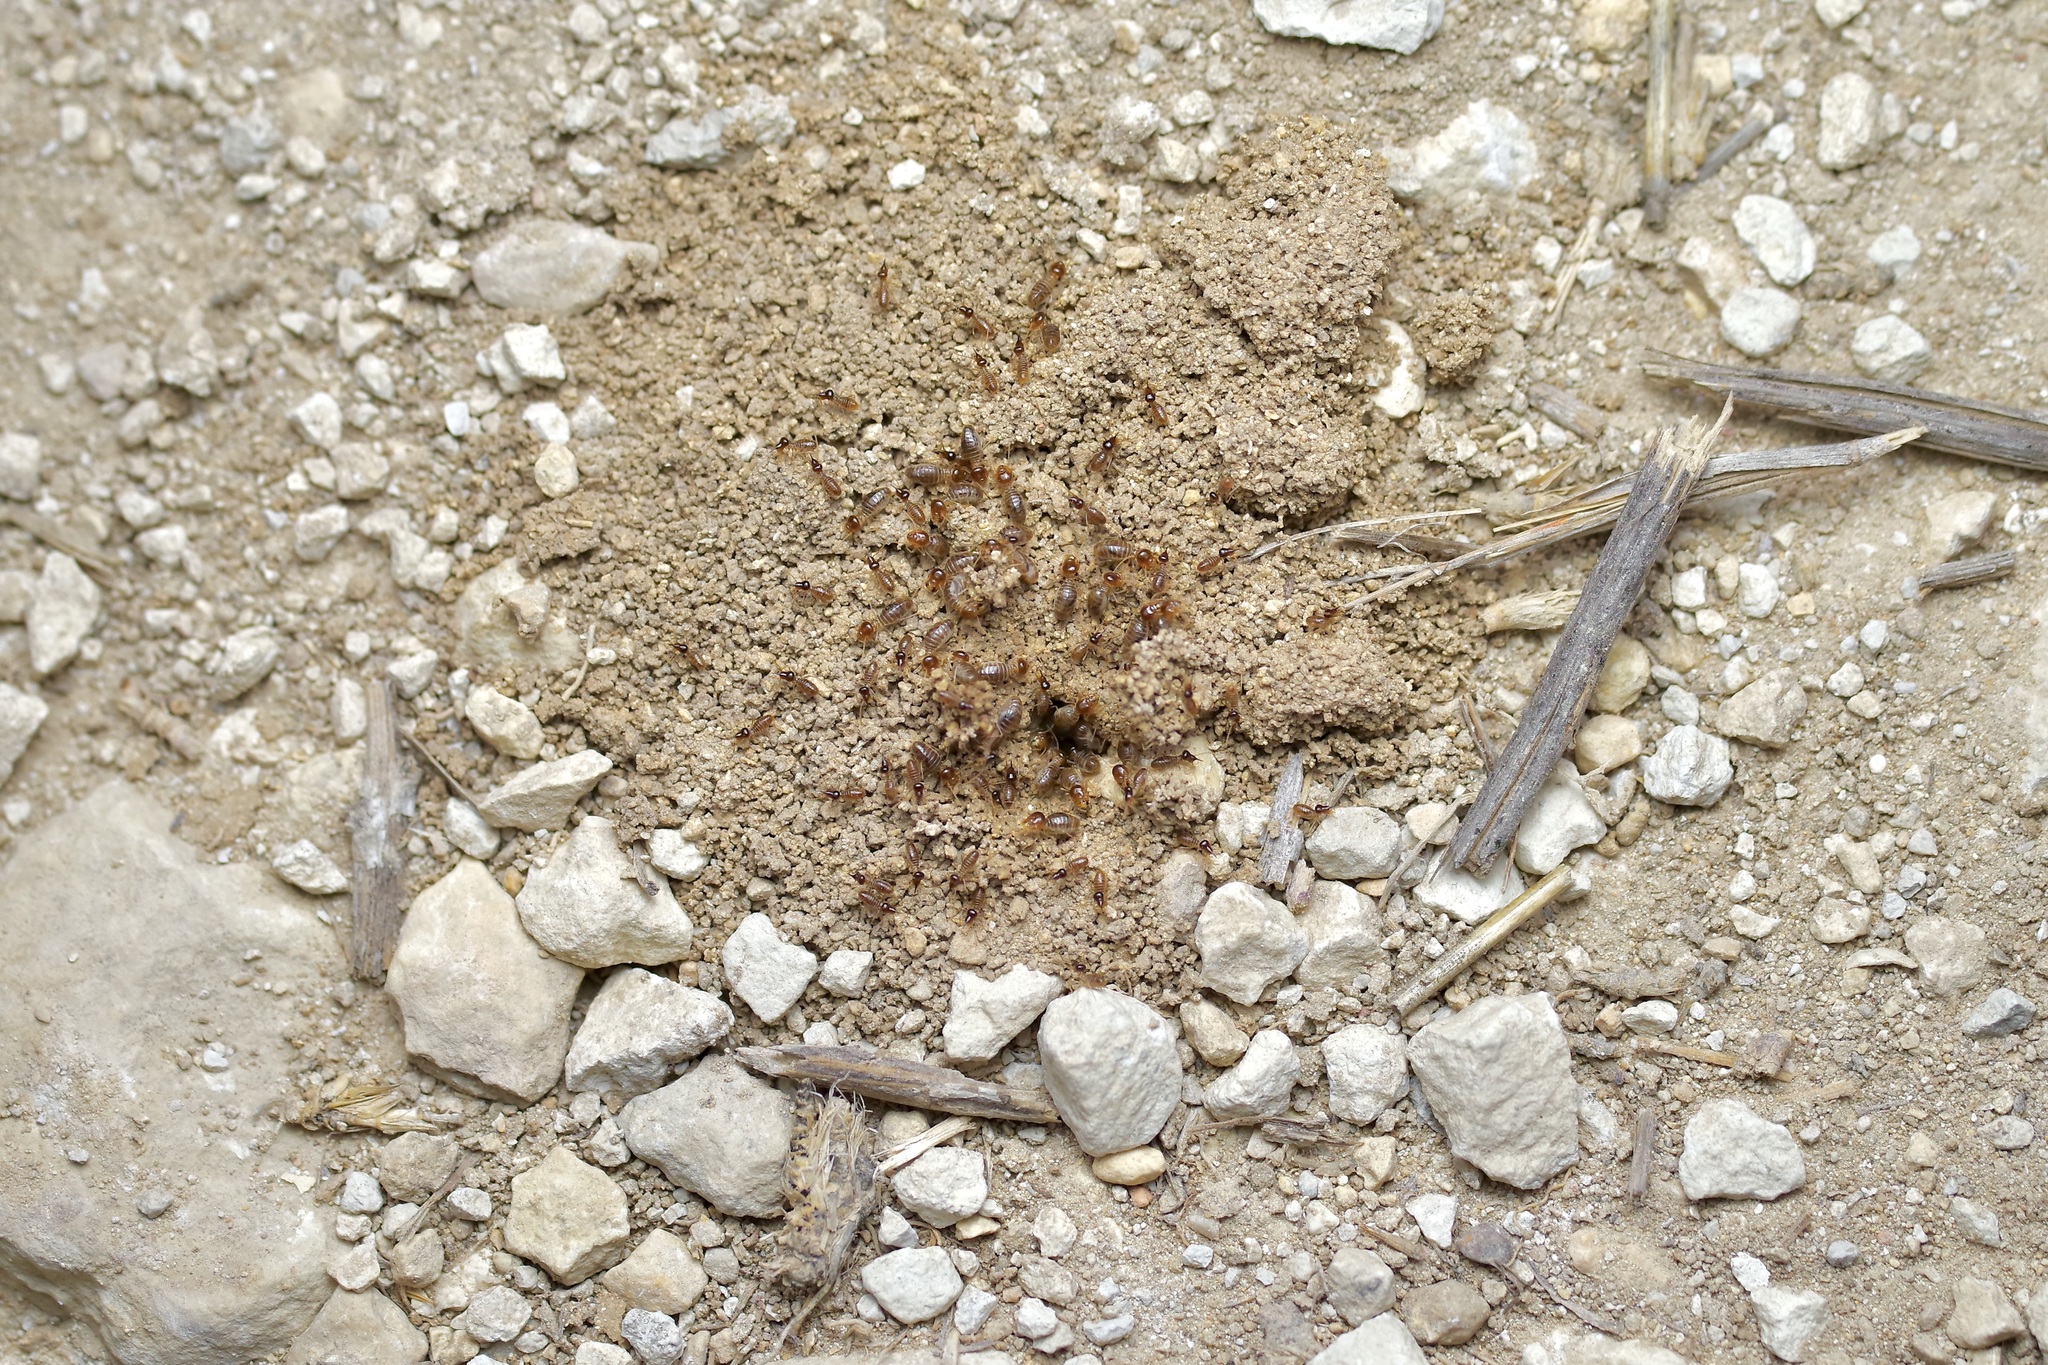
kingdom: Animalia
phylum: Arthropoda
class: Insecta
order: Blattodea
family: Termitidae
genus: Tenuirostritermes
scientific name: Tenuirostritermes cinereus
